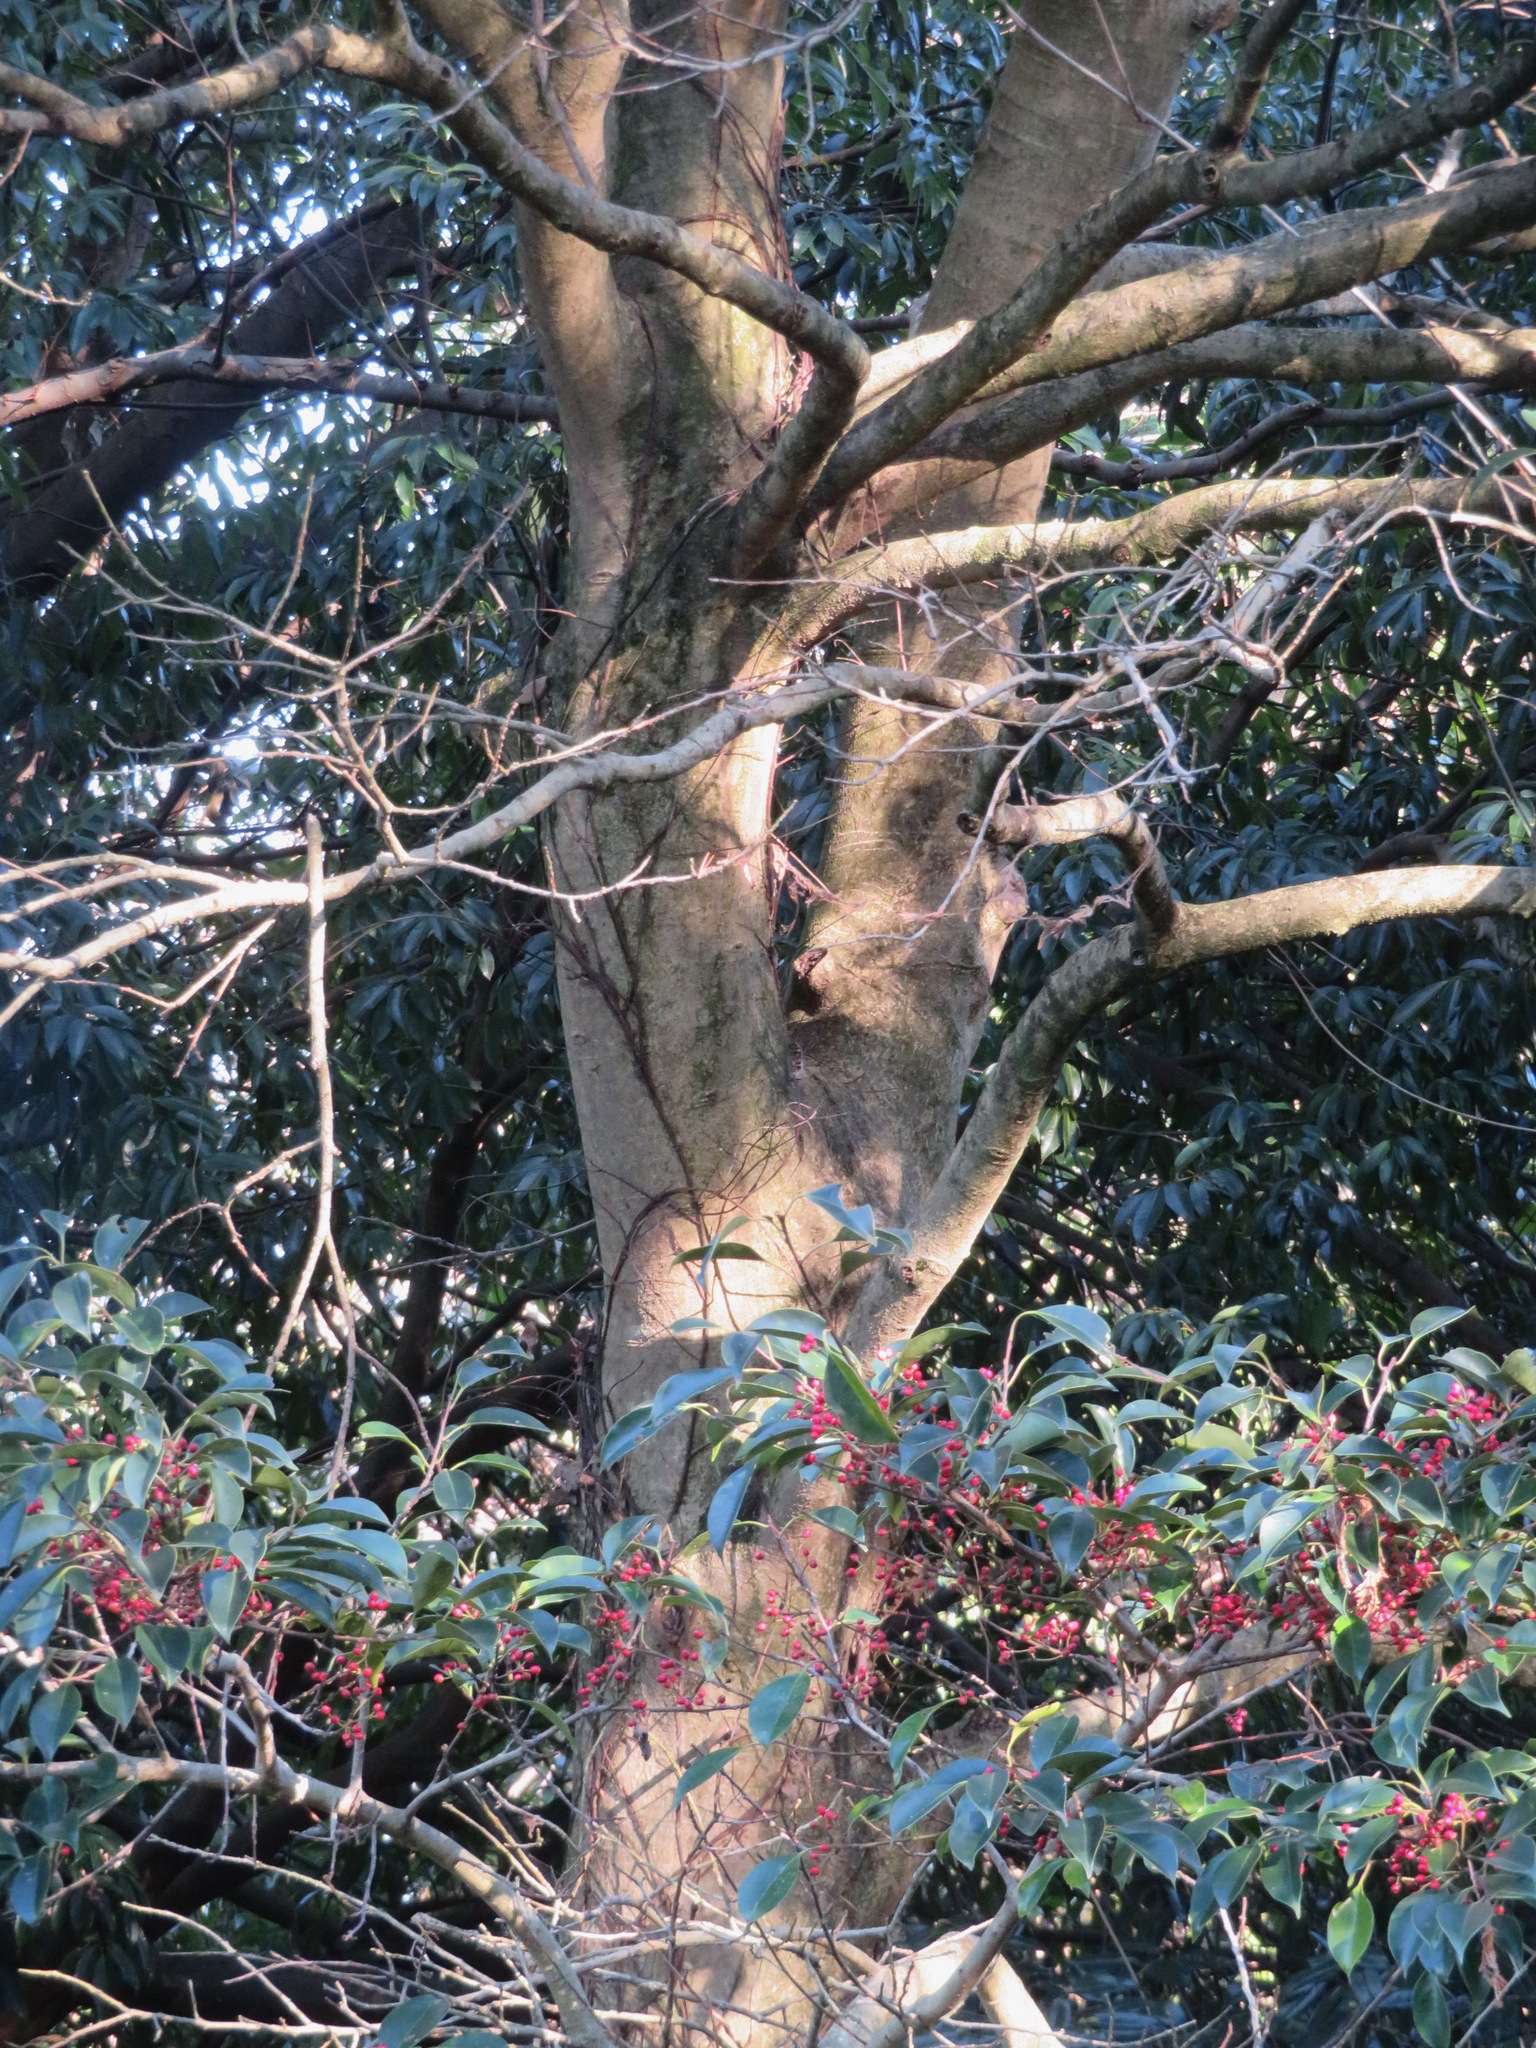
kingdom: Plantae
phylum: Tracheophyta
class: Magnoliopsida
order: Aquifoliales
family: Aquifoliaceae
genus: Ilex
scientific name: Ilex rotunda
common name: Kurogane holly
